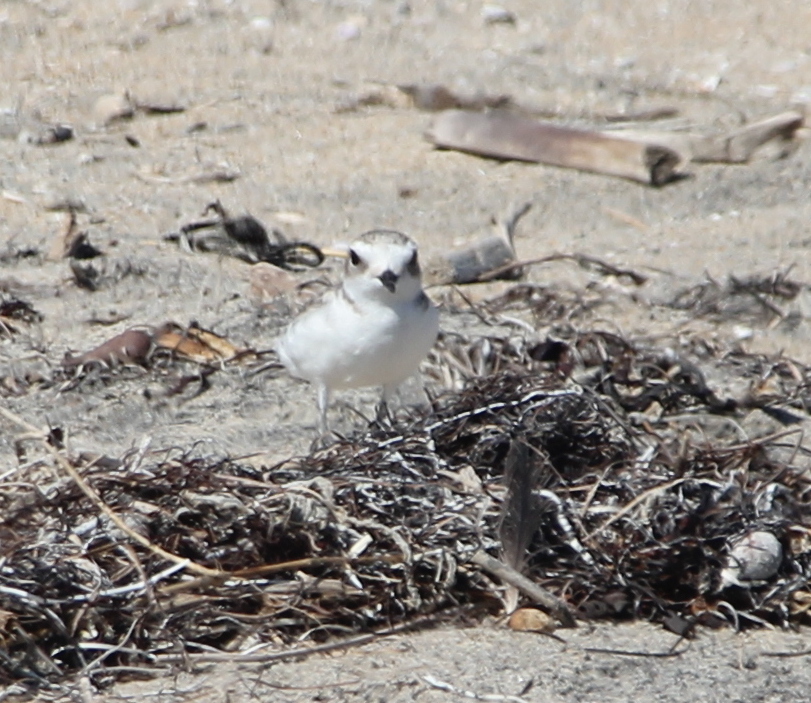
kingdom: Animalia
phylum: Chordata
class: Aves
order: Charadriiformes
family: Charadriidae
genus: Anarhynchus
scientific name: Anarhynchus
